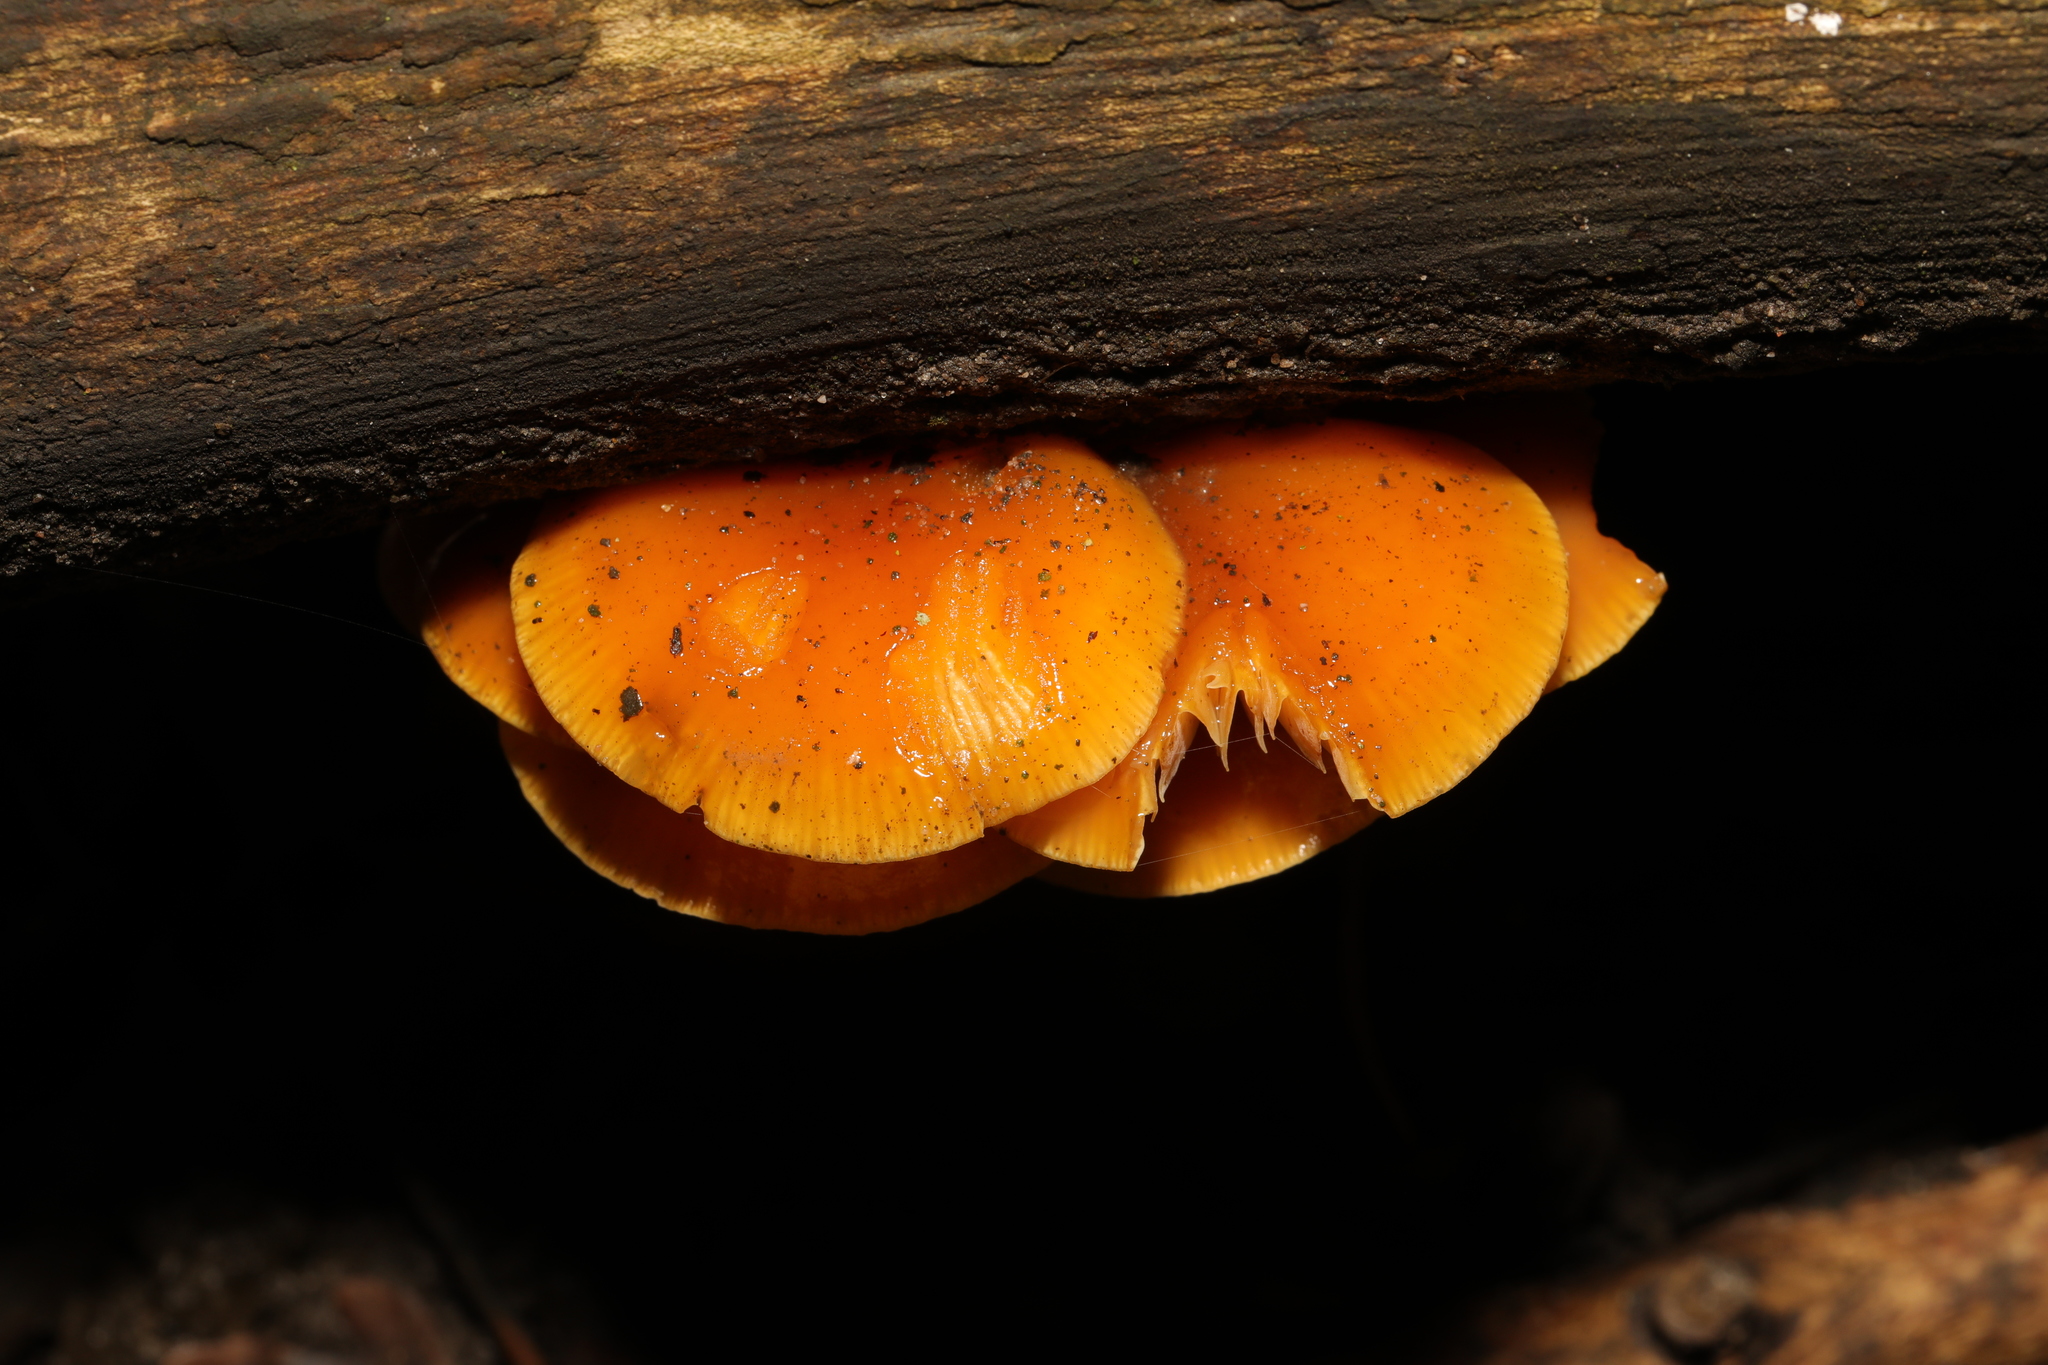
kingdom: Fungi
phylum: Basidiomycota
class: Agaricomycetes
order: Agaricales
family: Physalacriaceae
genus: Flammulina
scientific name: Flammulina
